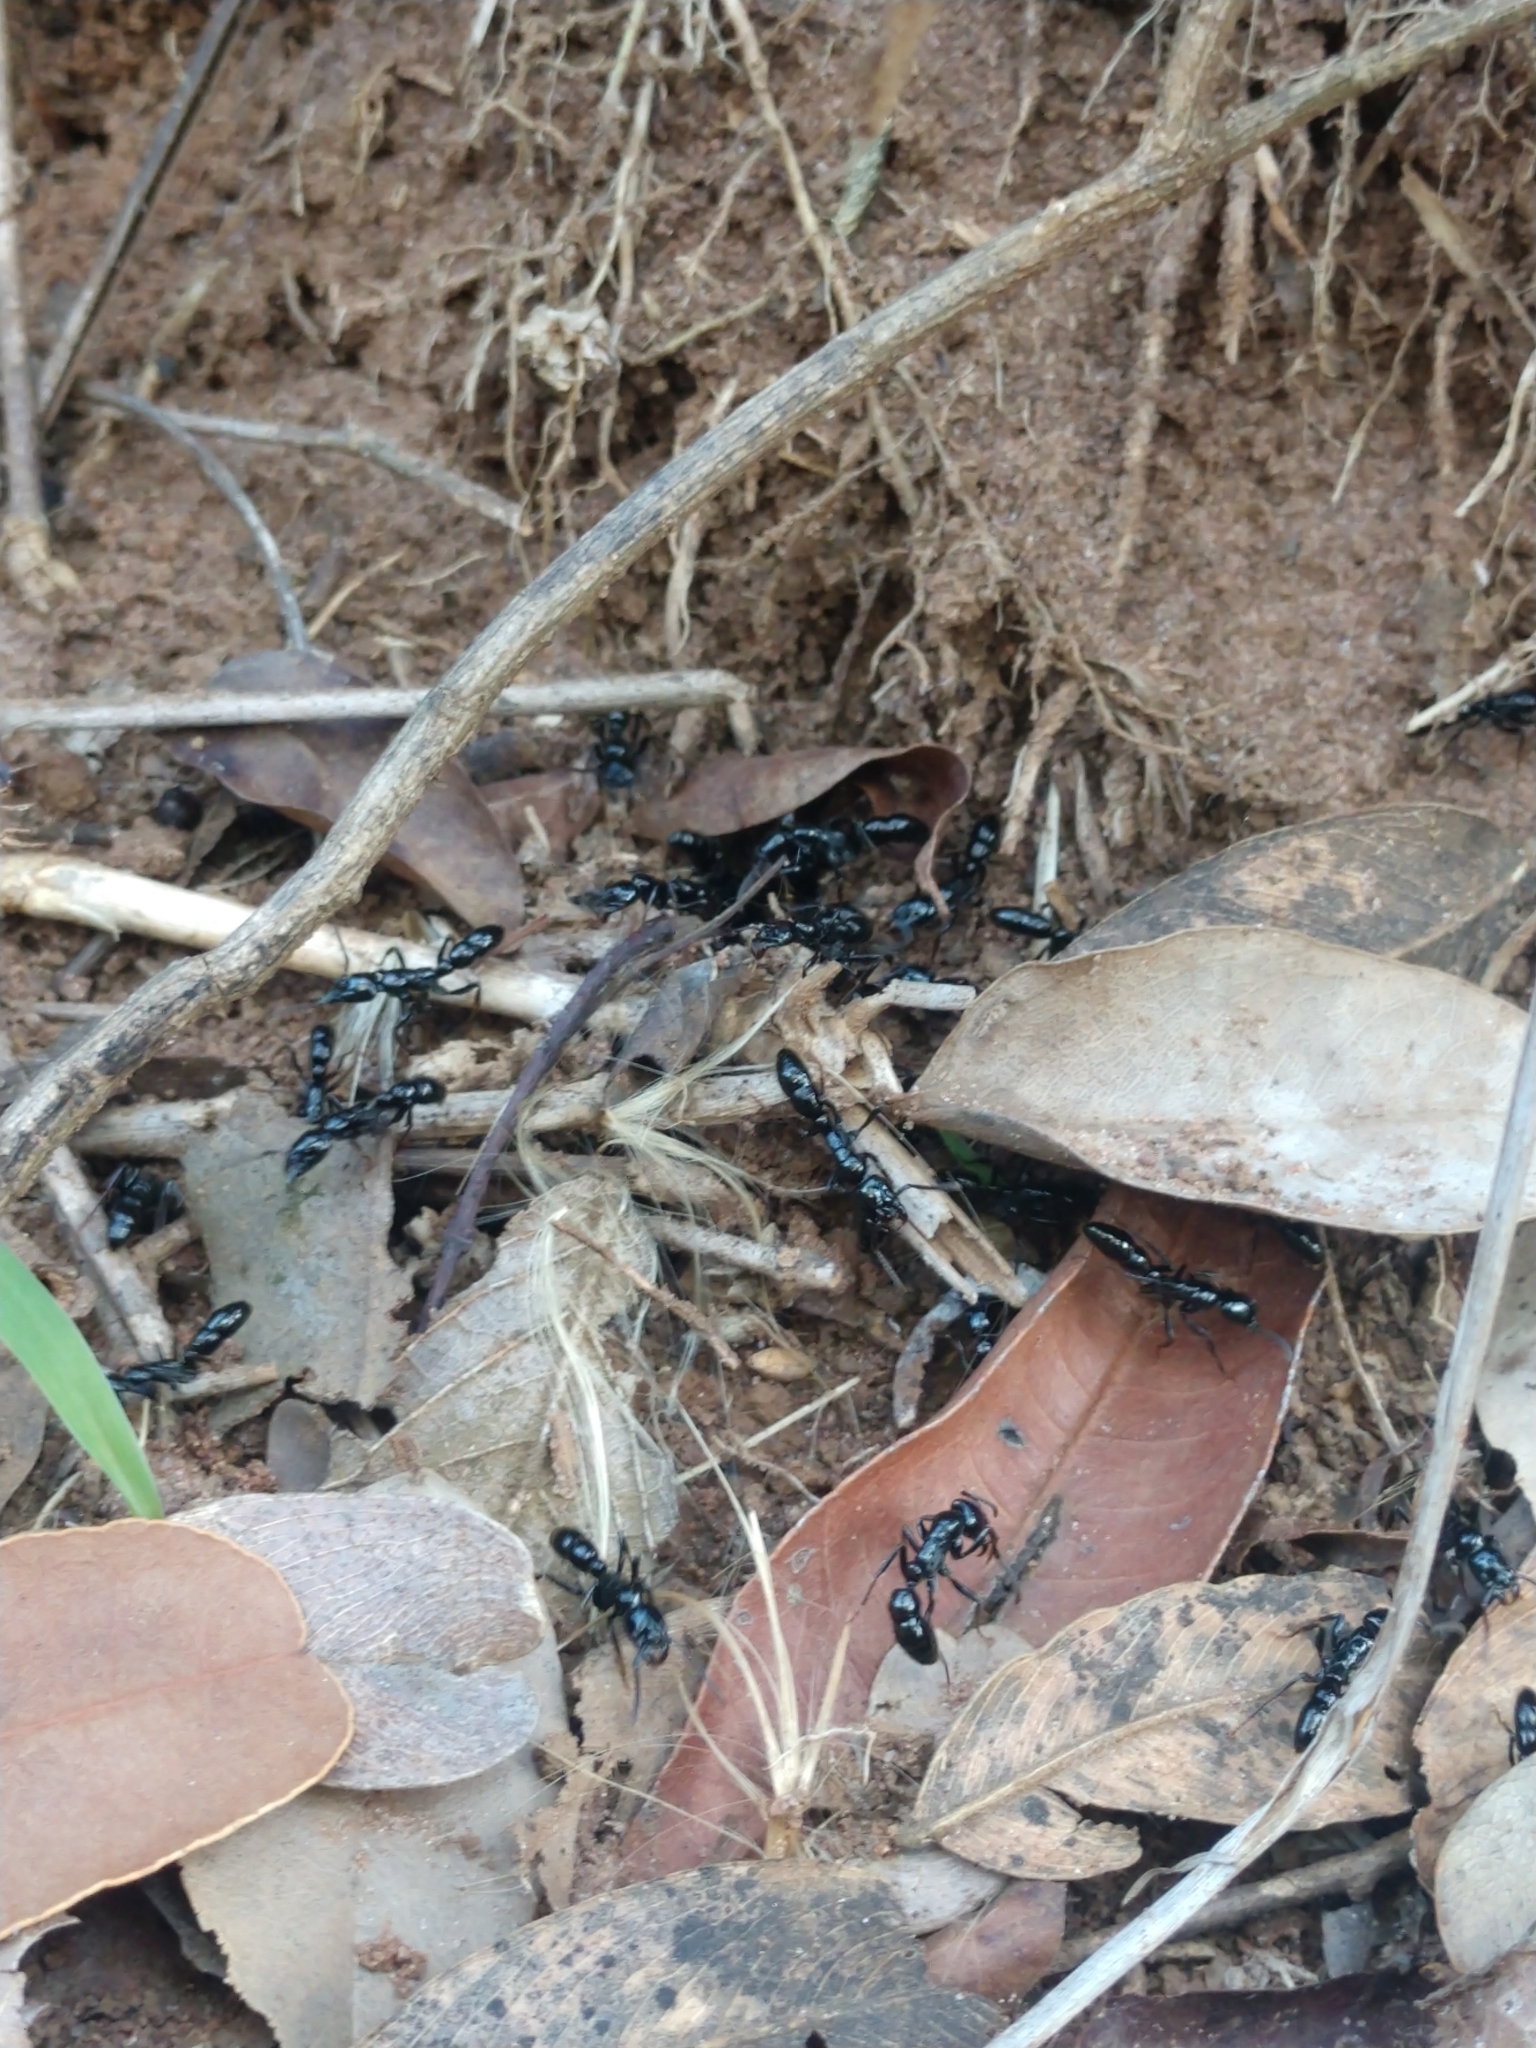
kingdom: Animalia
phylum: Arthropoda
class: Insecta
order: Hymenoptera
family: Formicidae
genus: Neoponera
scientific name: Neoponera
